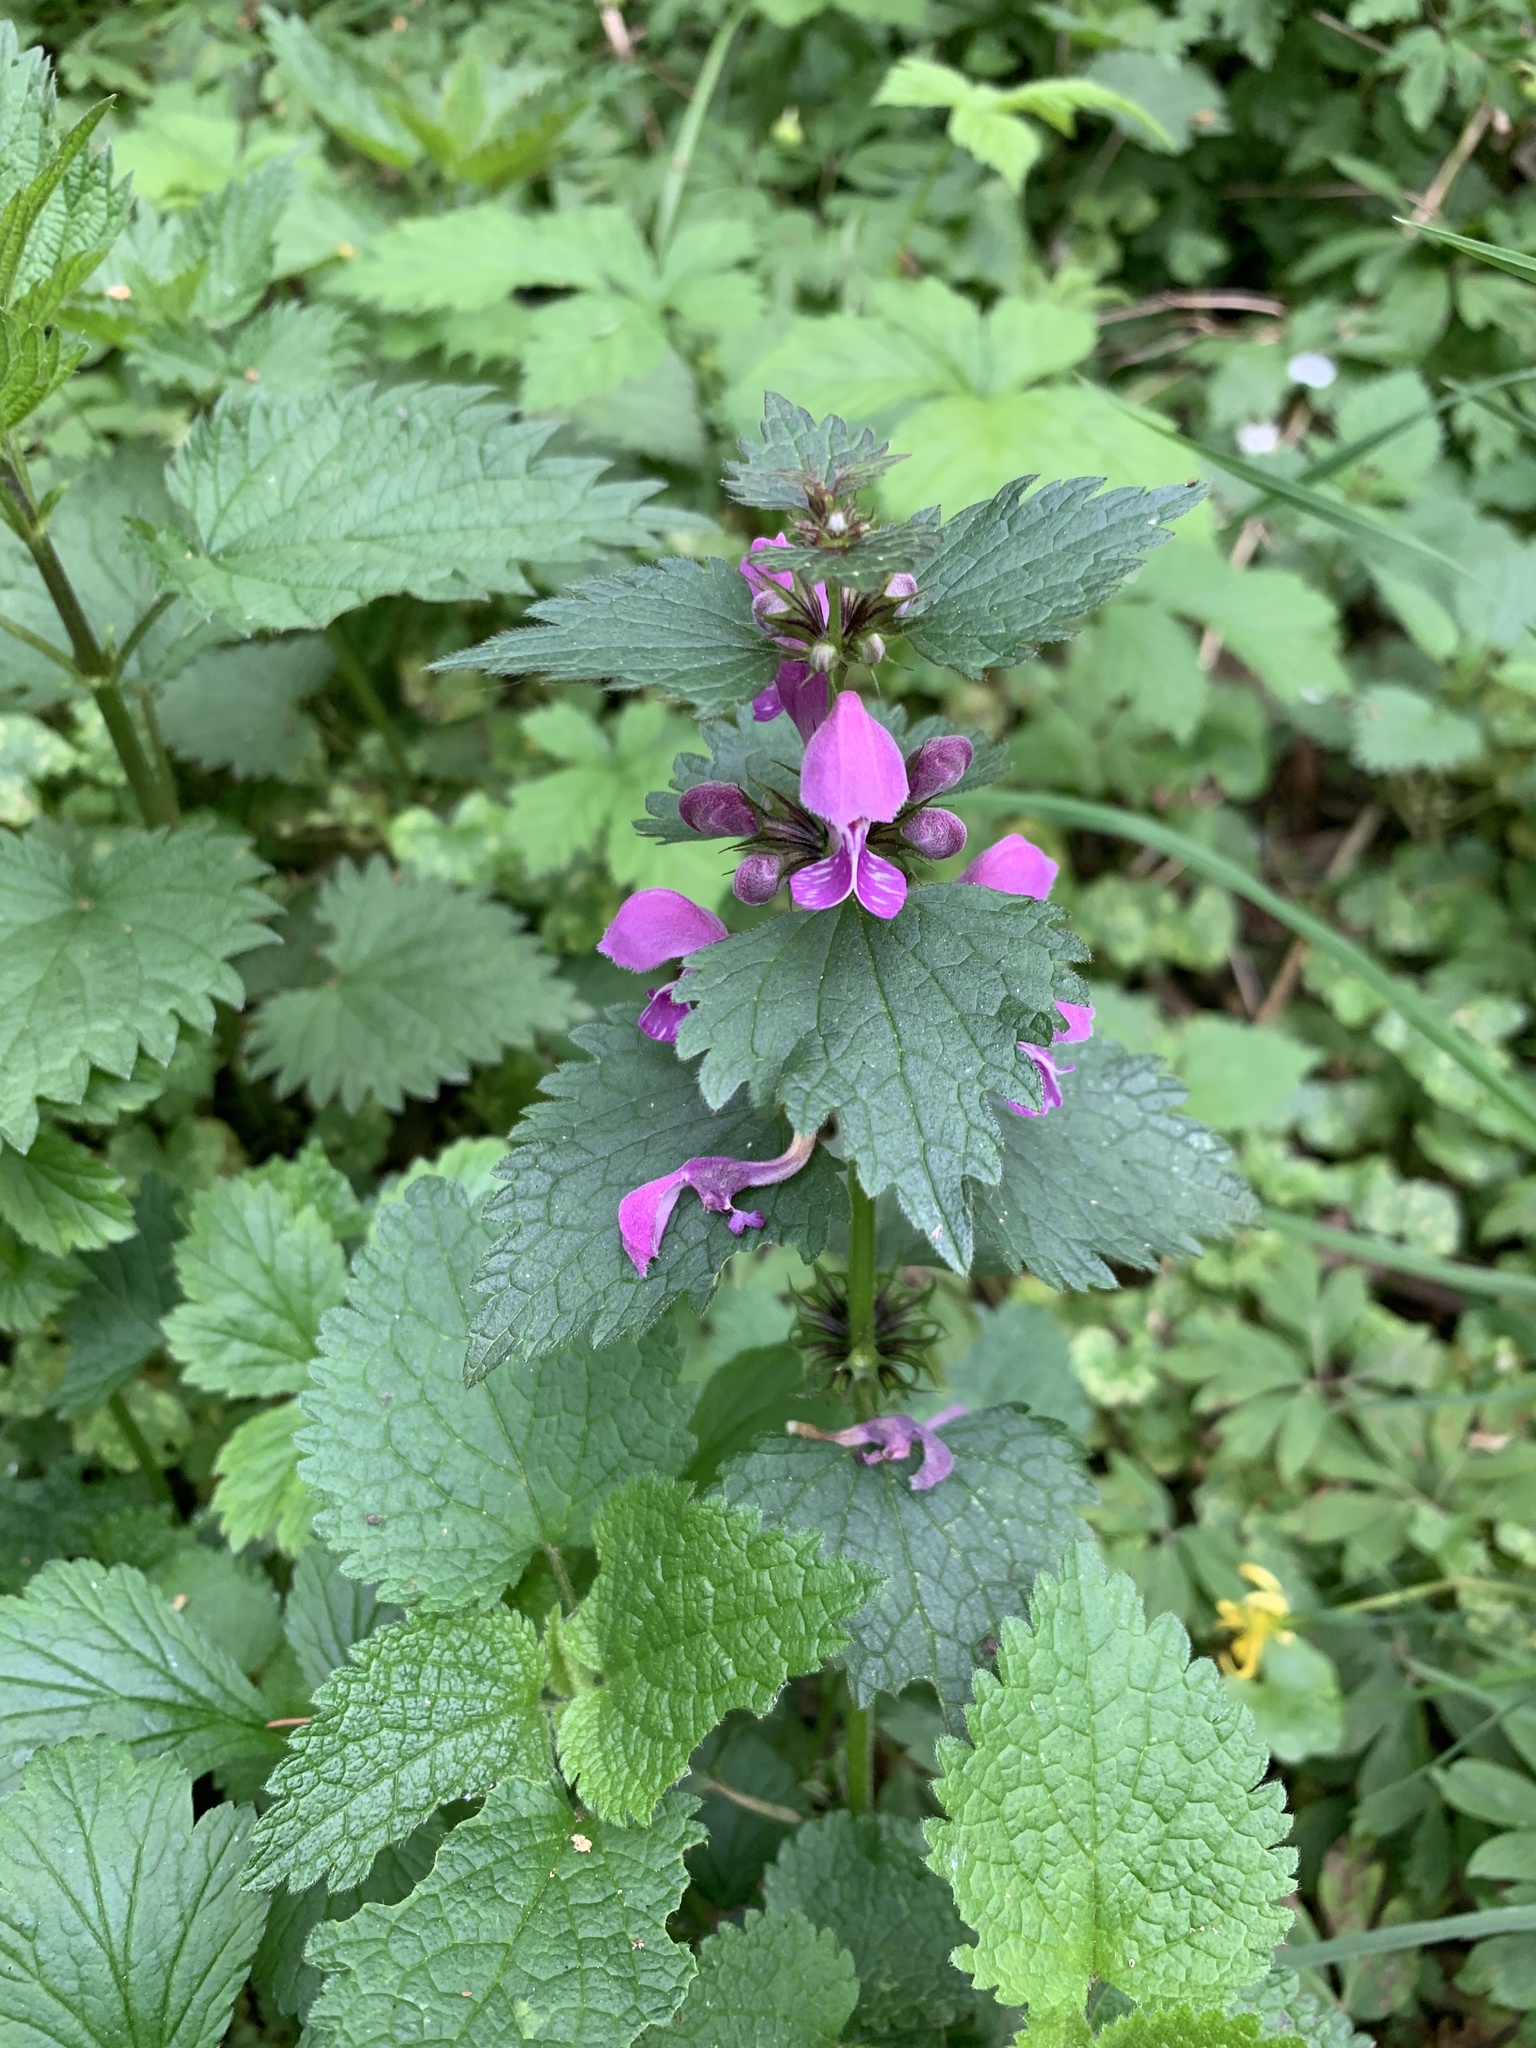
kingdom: Plantae
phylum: Tracheophyta
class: Magnoliopsida
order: Lamiales
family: Lamiaceae
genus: Lamium
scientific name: Lamium maculatum
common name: Spotted dead-nettle
